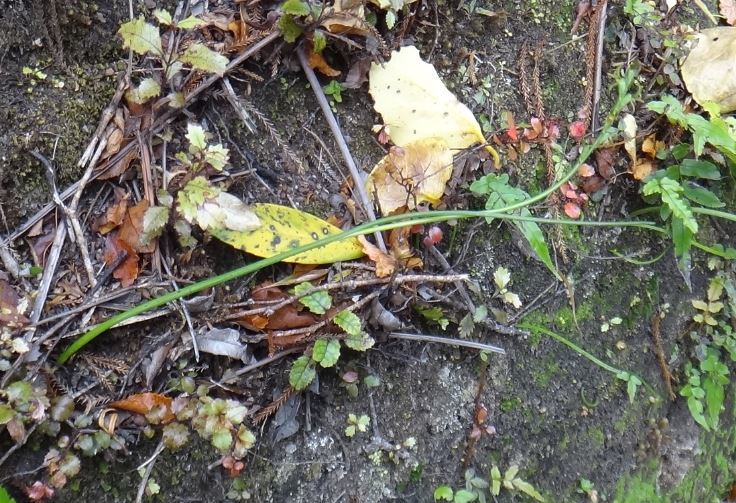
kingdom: Plantae
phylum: Tracheophyta
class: Liliopsida
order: Asparagales
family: Orchidaceae
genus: Prasophyllum
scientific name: Prasophyllum colensoi
